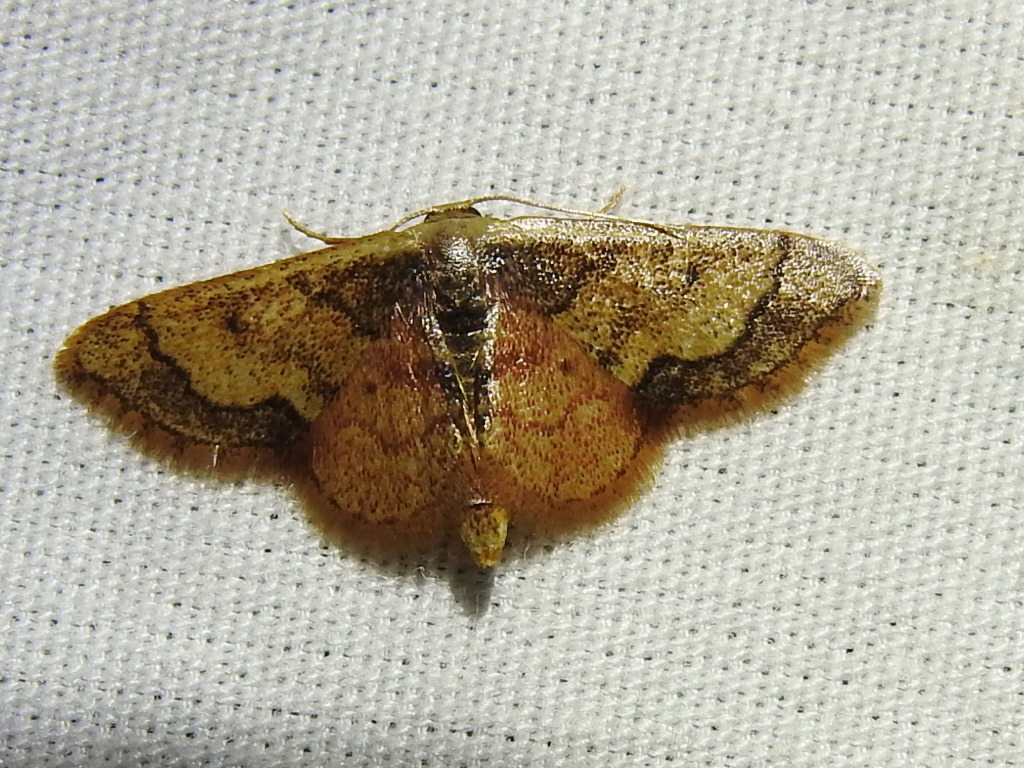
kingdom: Animalia
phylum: Arthropoda
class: Insecta
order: Lepidoptera
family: Geometridae
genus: Idaea
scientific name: Idaea kendallaria
